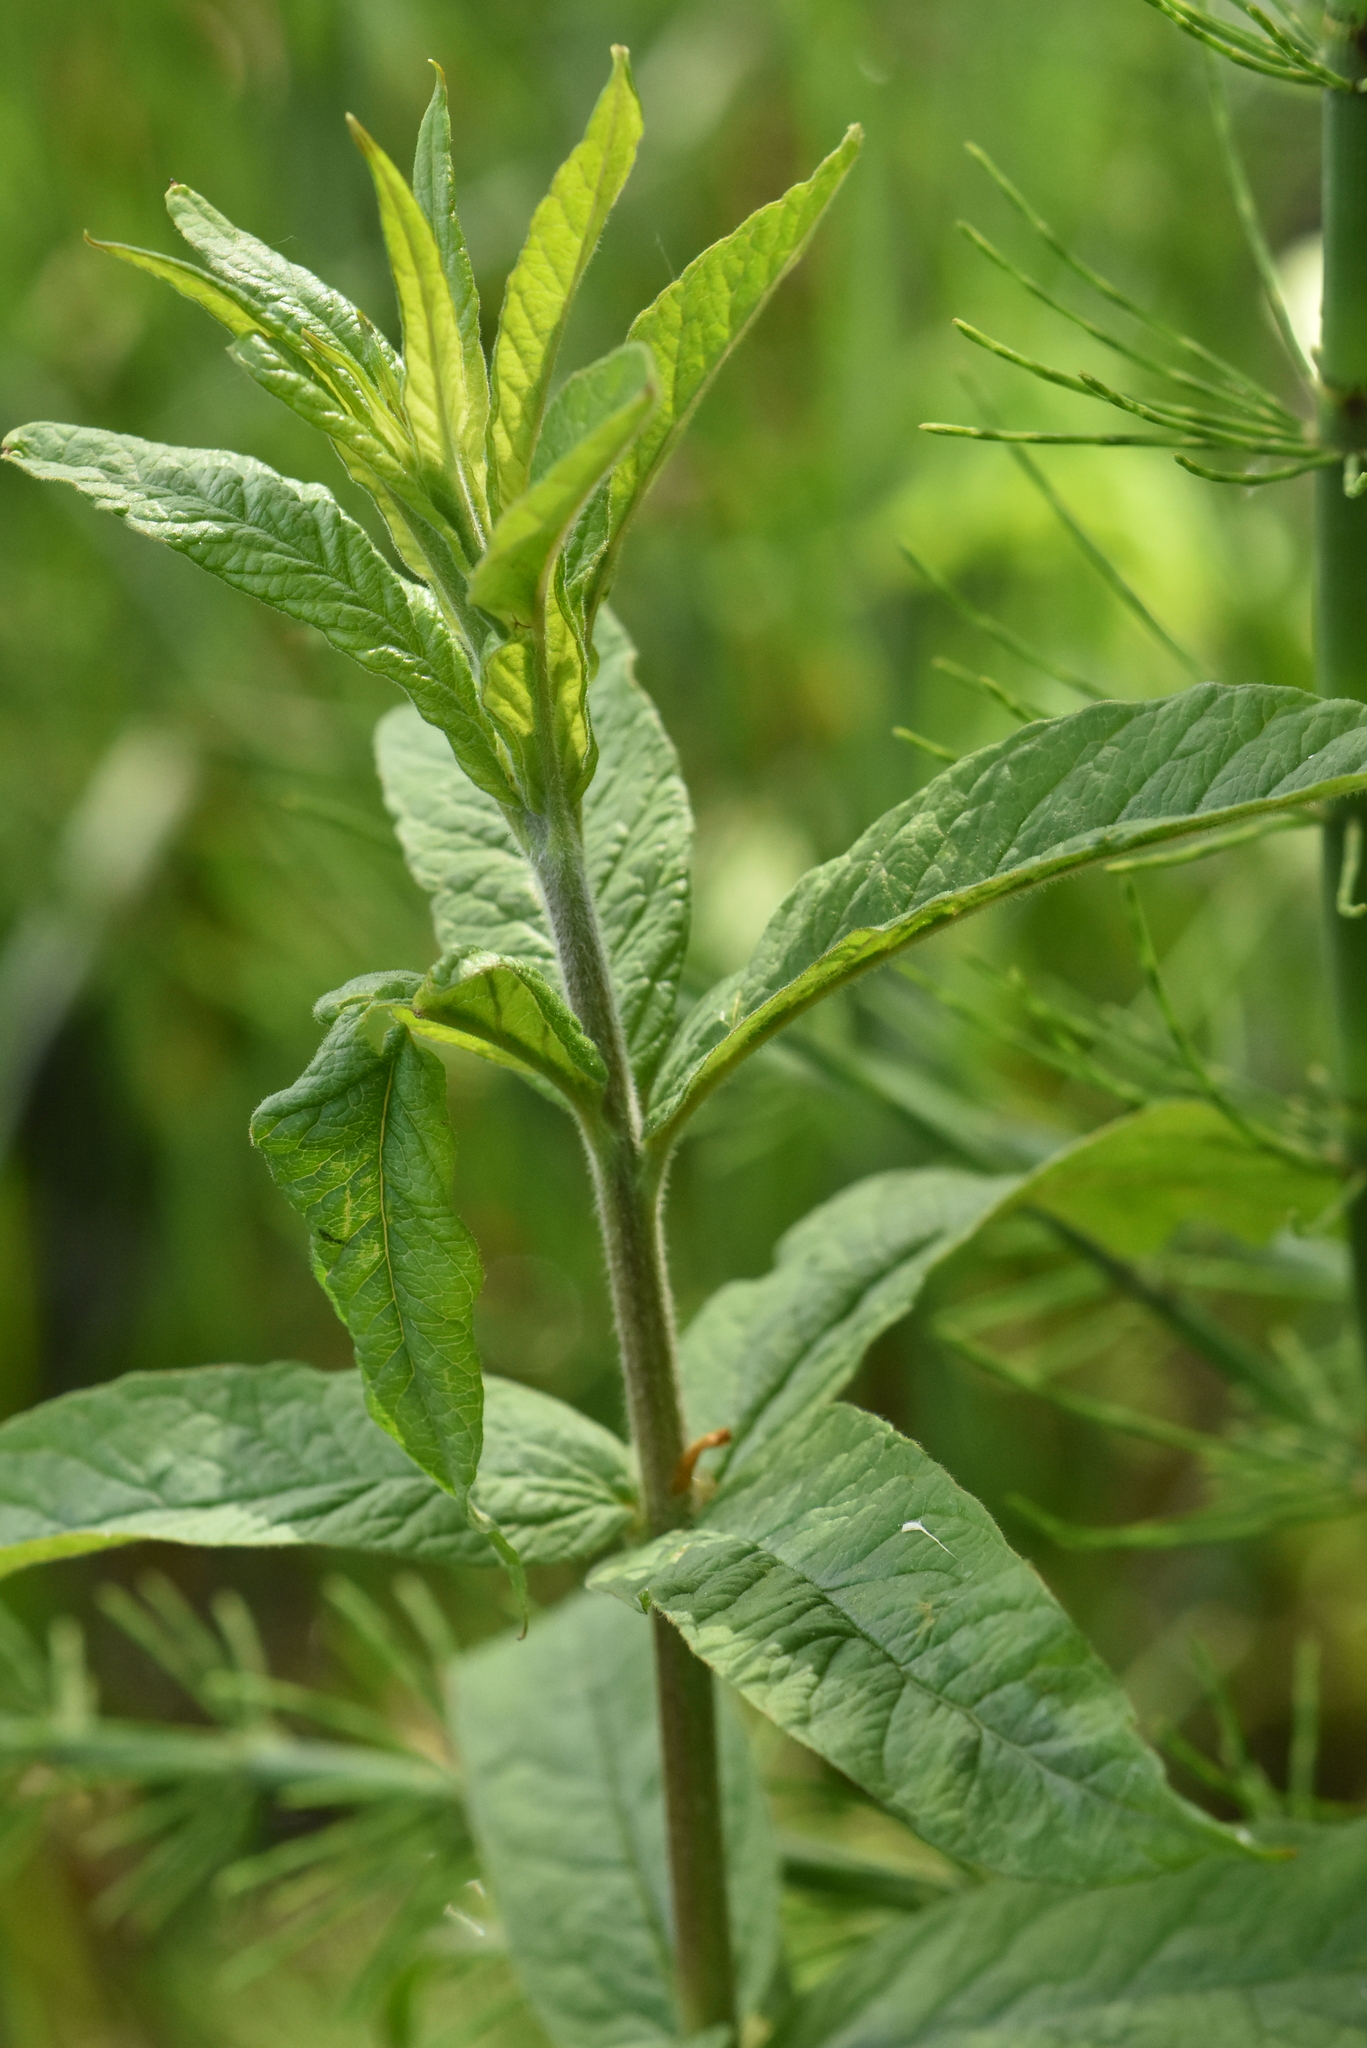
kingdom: Plantae
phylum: Tracheophyta
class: Magnoliopsida
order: Ericales
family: Primulaceae
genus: Lysimachia
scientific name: Lysimachia vulgaris
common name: Yellow loosestrife
